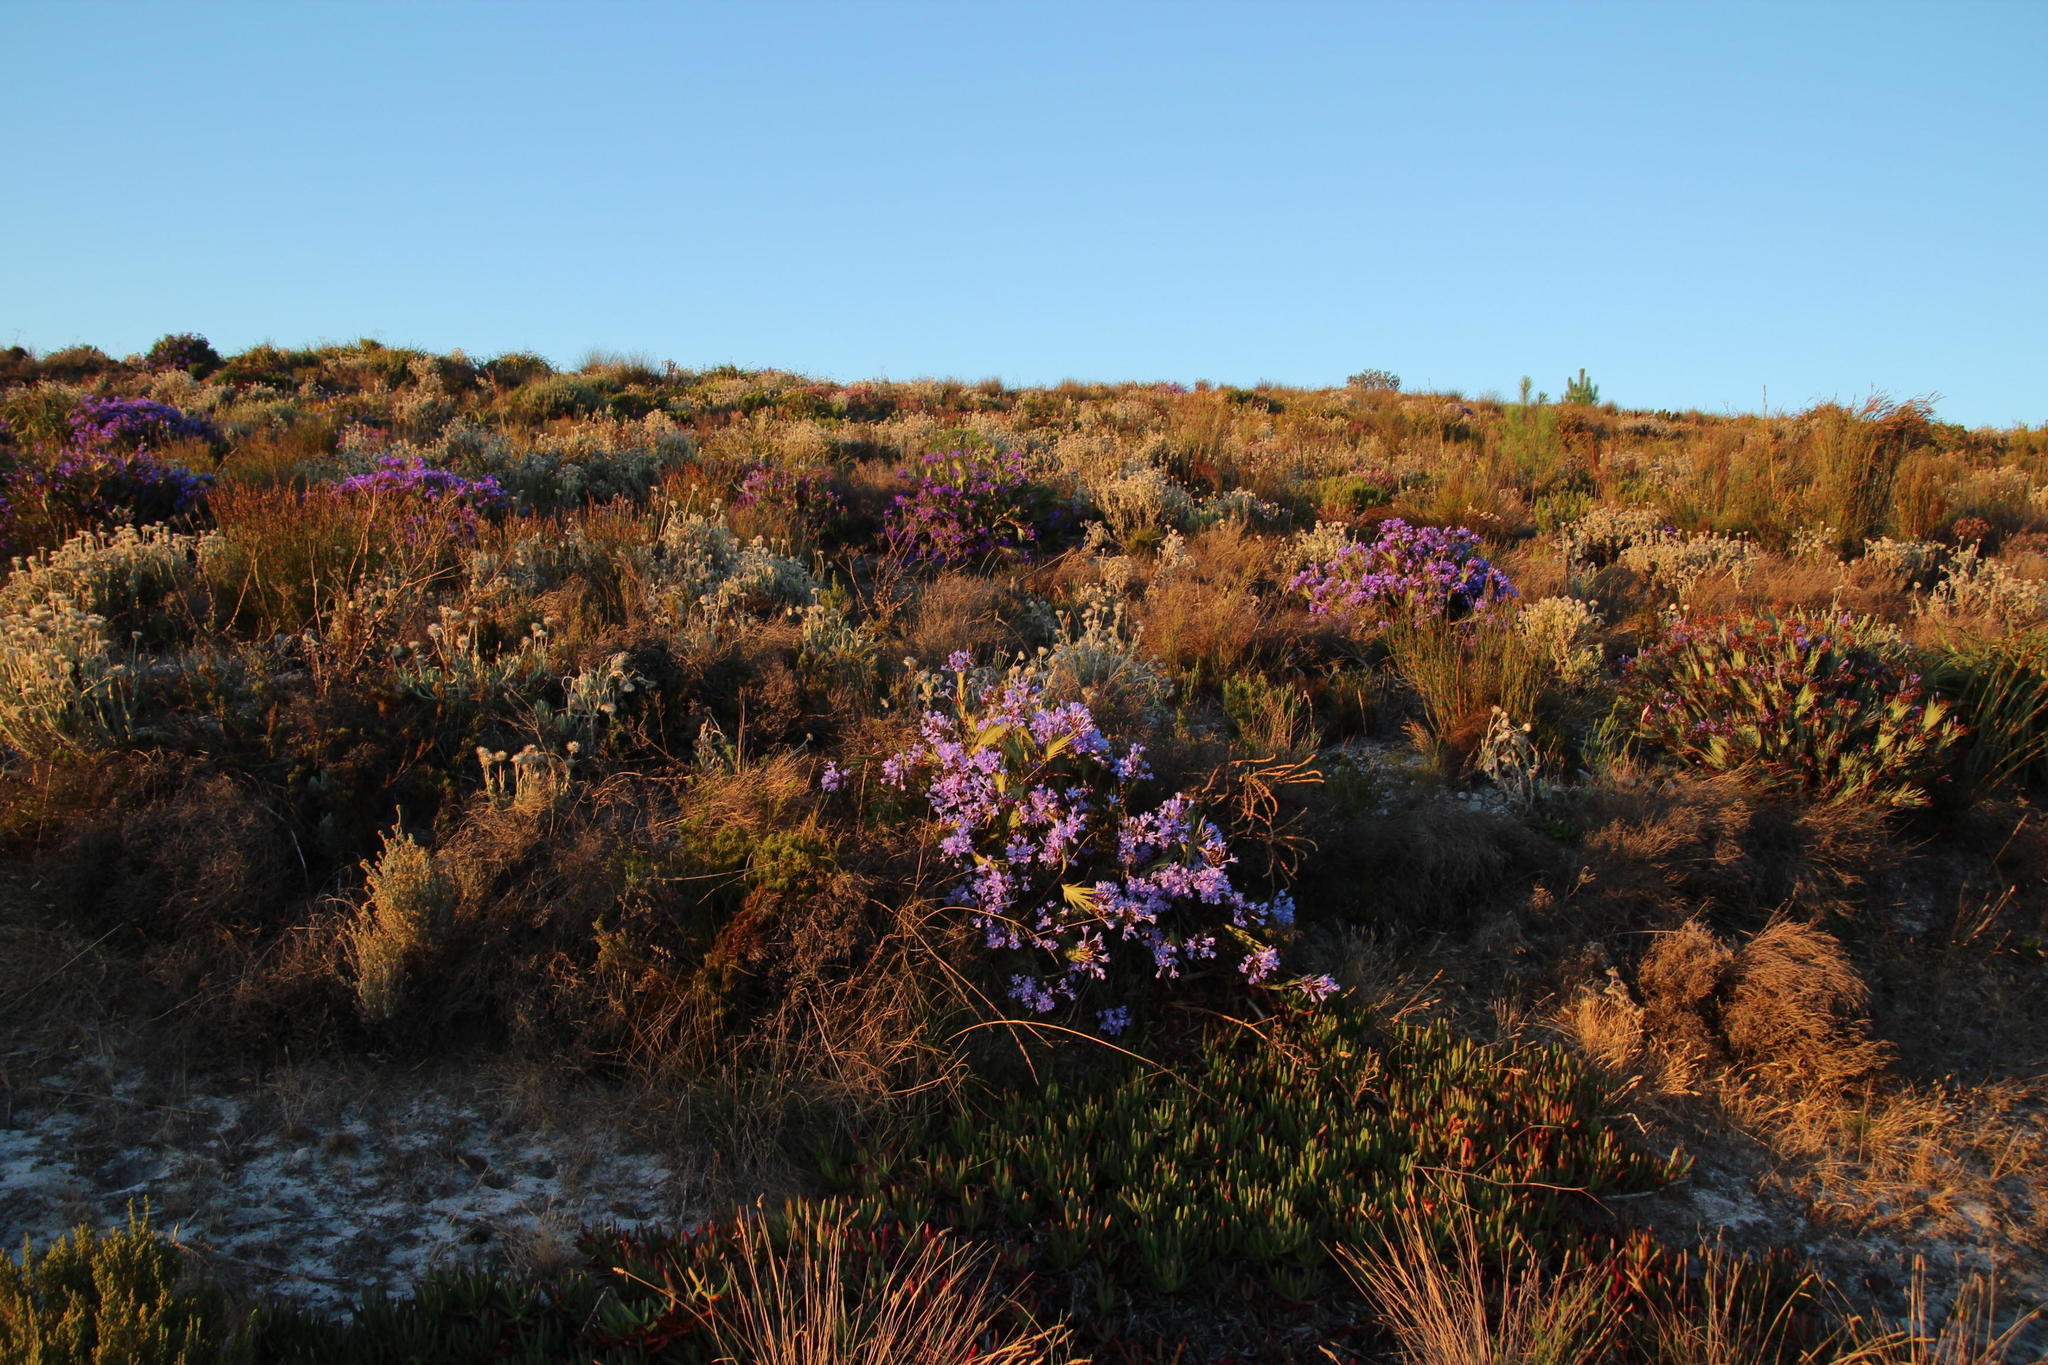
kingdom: Plantae
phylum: Tracheophyta
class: Liliopsida
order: Asparagales
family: Iridaceae
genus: Nivenia
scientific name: Nivenia stokoei
